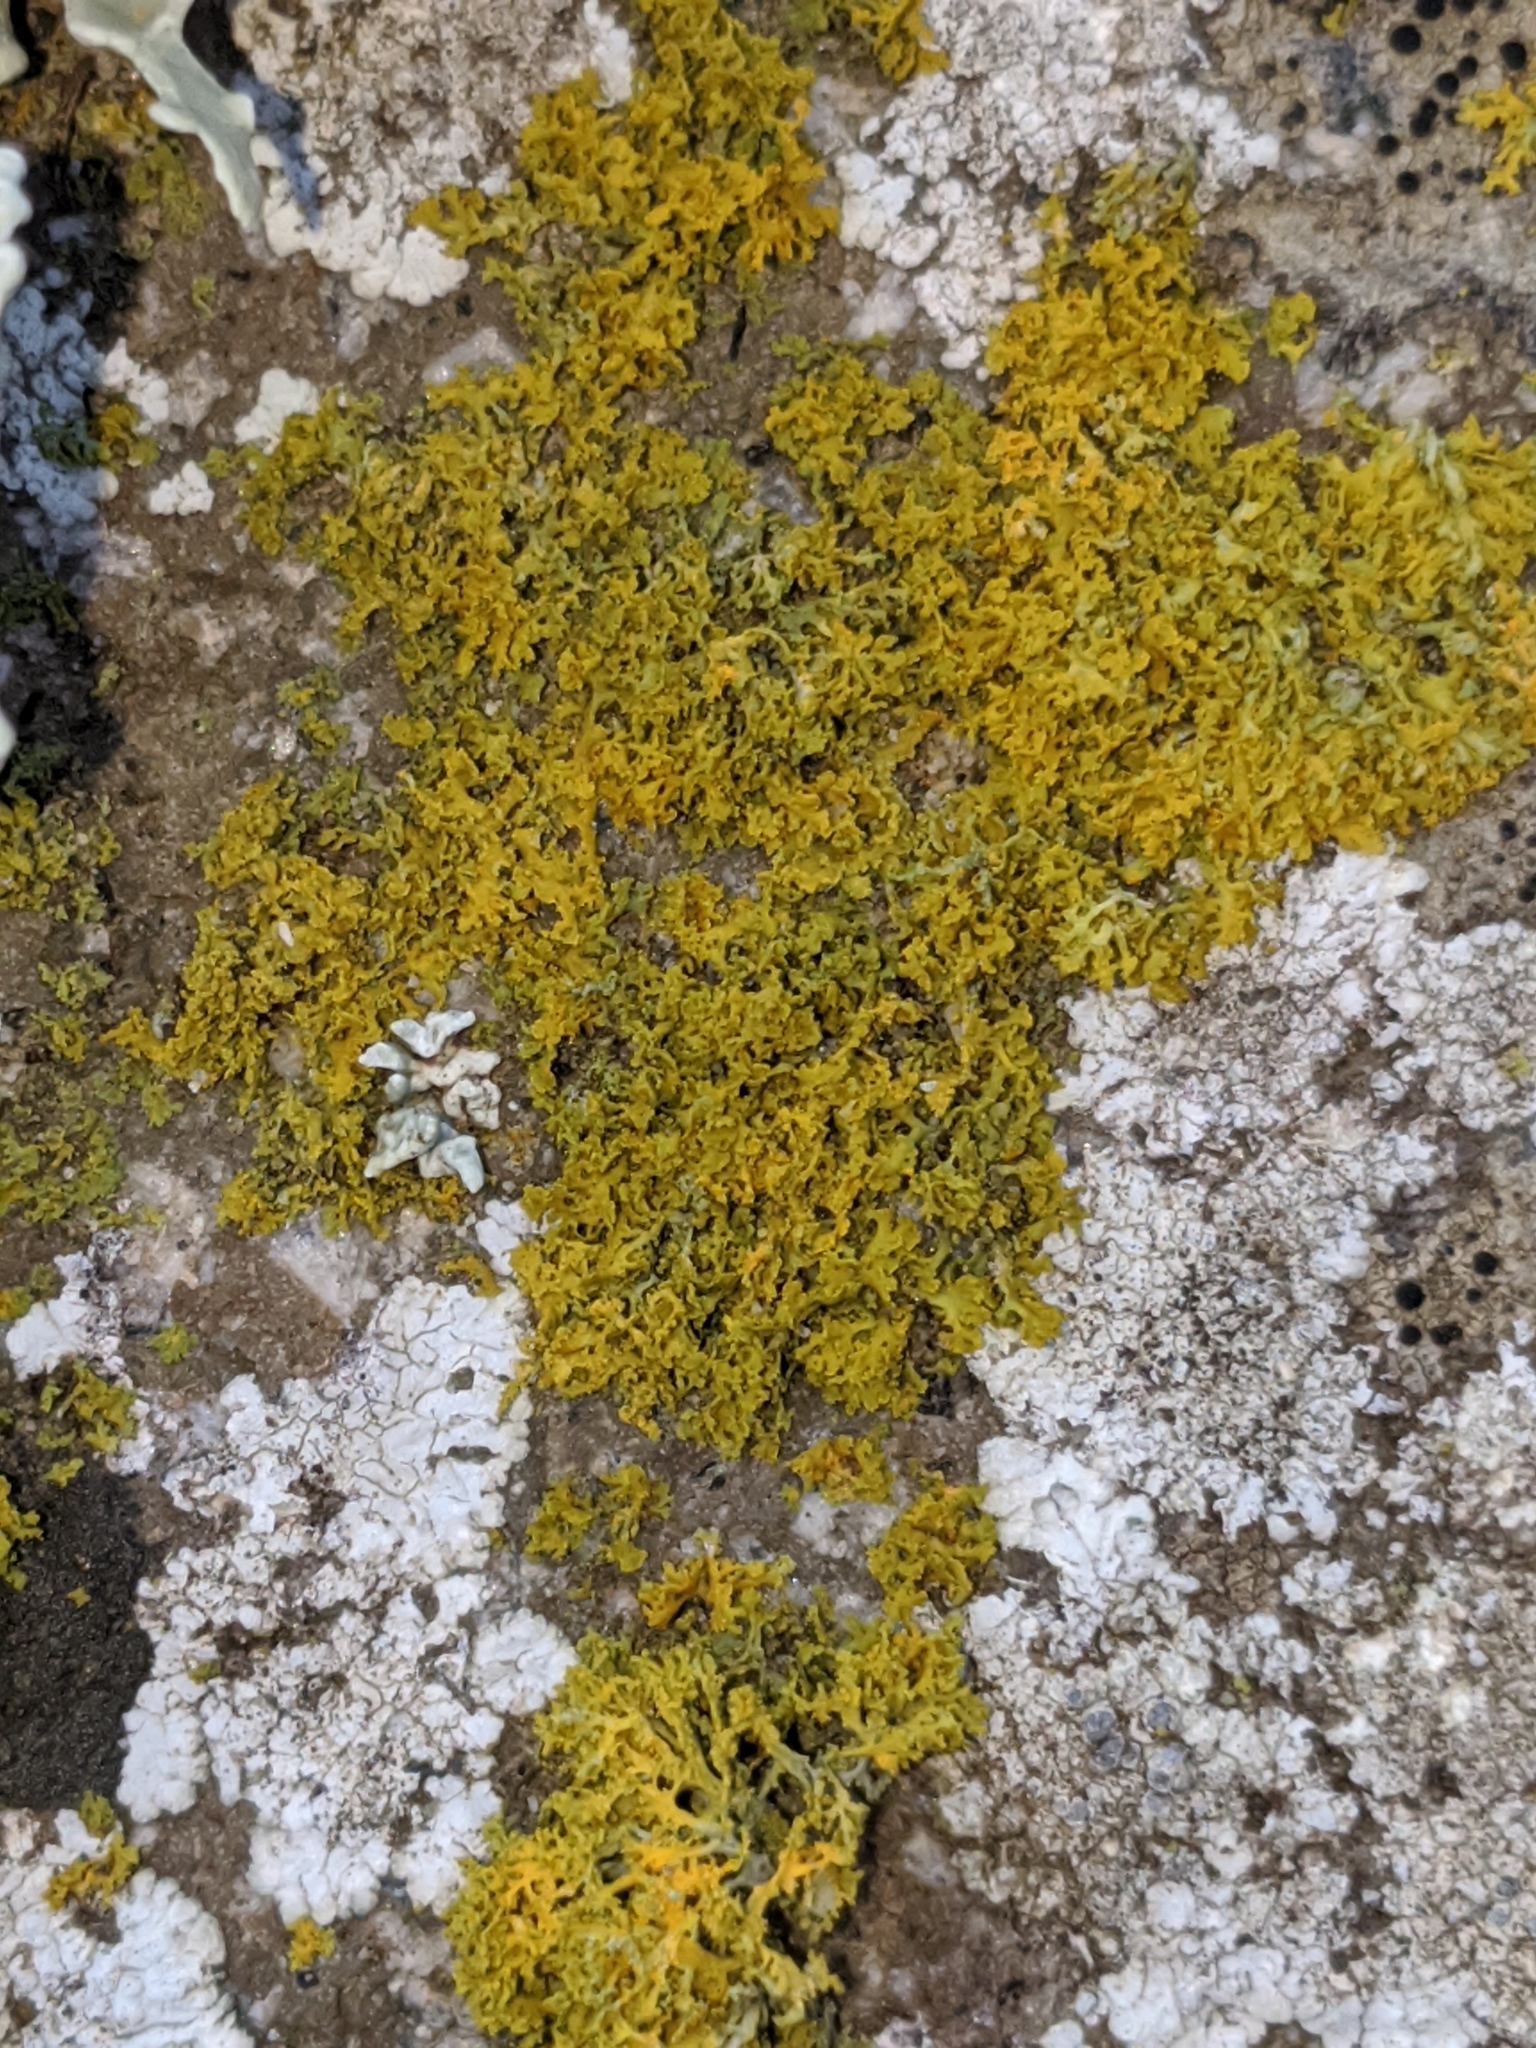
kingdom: Fungi
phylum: Ascomycota
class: Lecanoromycetes
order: Teloschistales
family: Teloschistaceae
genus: Polycauliona
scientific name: Polycauliona candelaria
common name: Shrubby sunburst lichen
